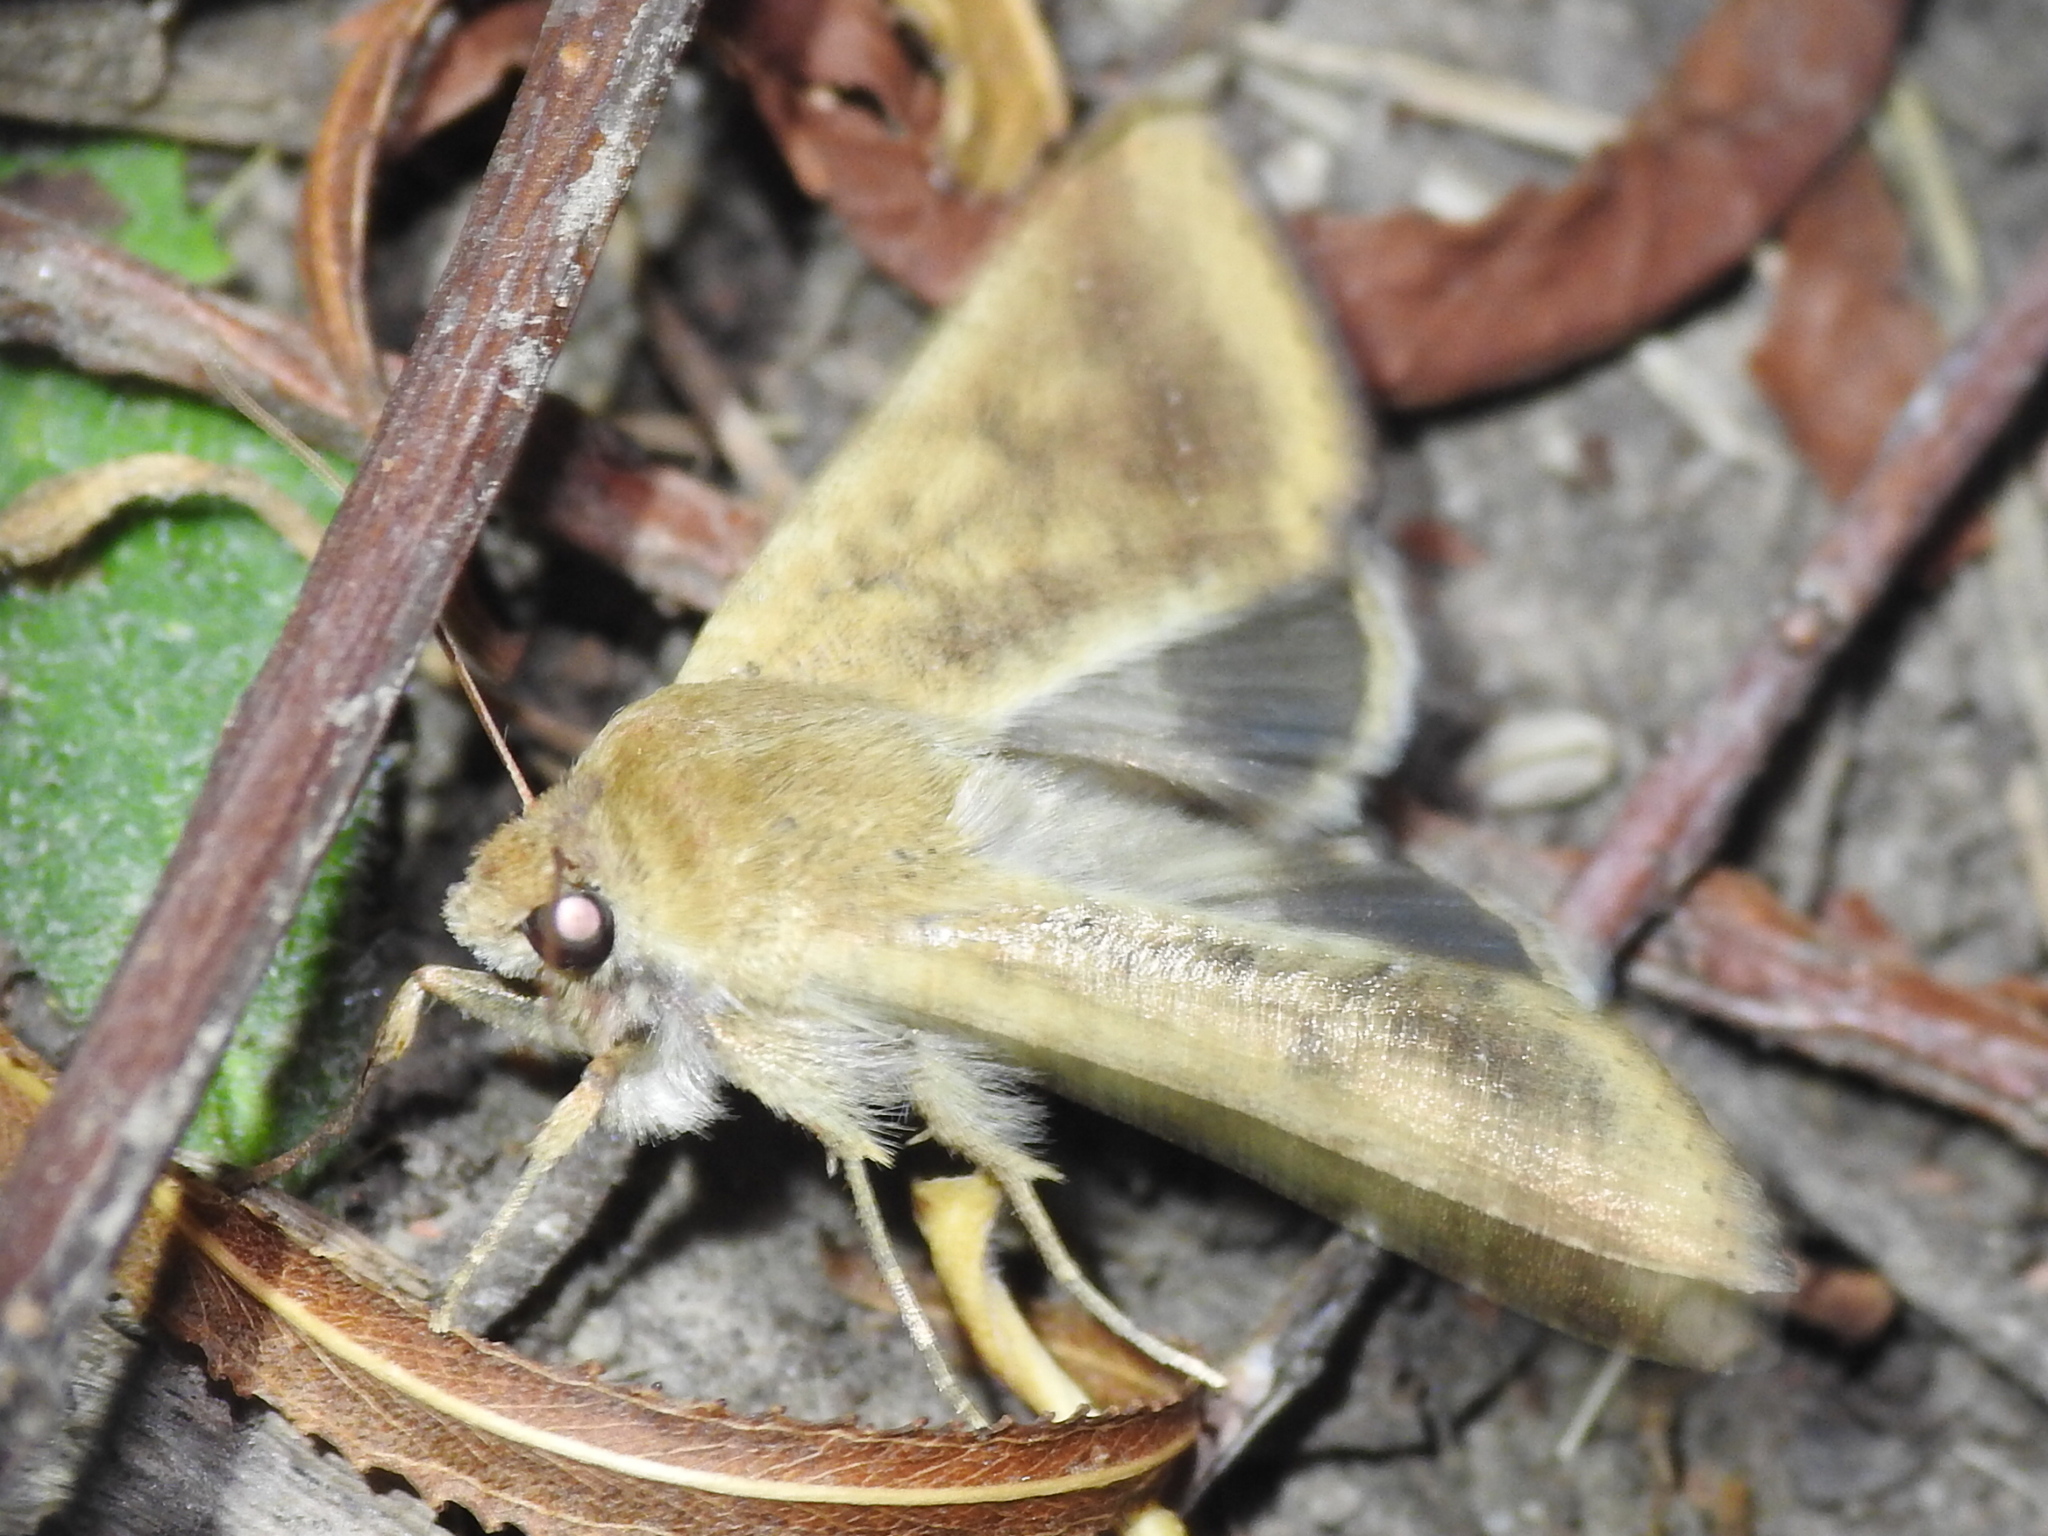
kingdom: Animalia
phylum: Arthropoda
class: Insecta
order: Lepidoptera
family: Noctuidae
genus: Helicoverpa
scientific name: Helicoverpa zea
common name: Bollworm
